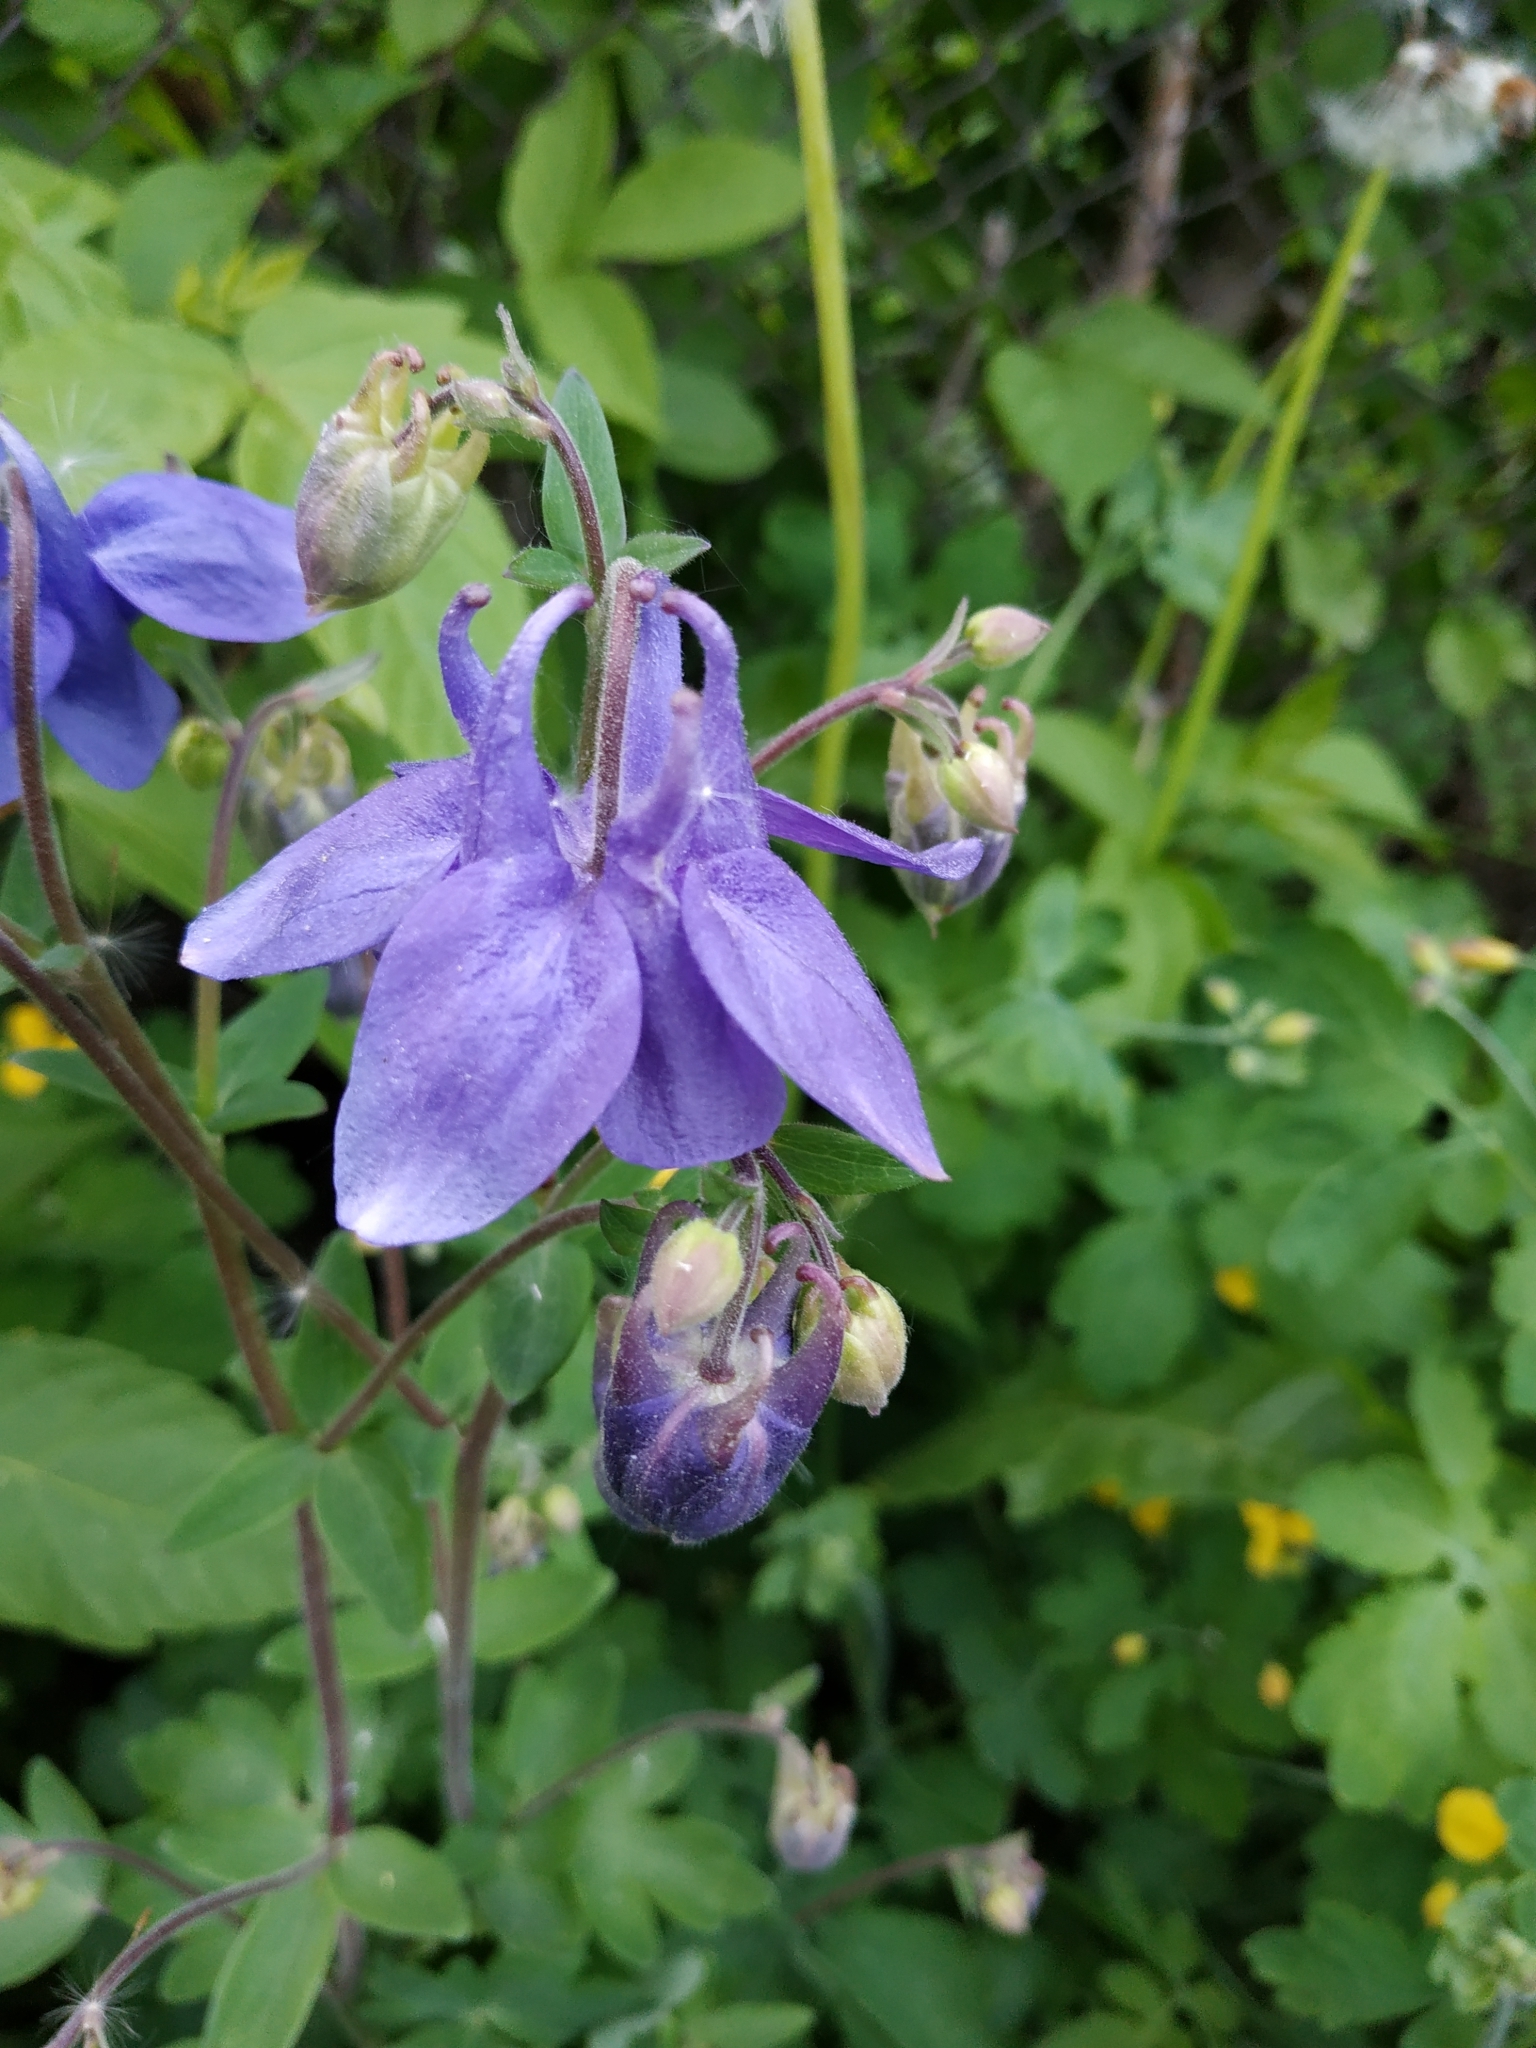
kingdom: Plantae
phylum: Tracheophyta
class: Magnoliopsida
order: Ranunculales
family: Ranunculaceae
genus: Aquilegia
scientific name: Aquilegia vulgaris
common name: Columbine
